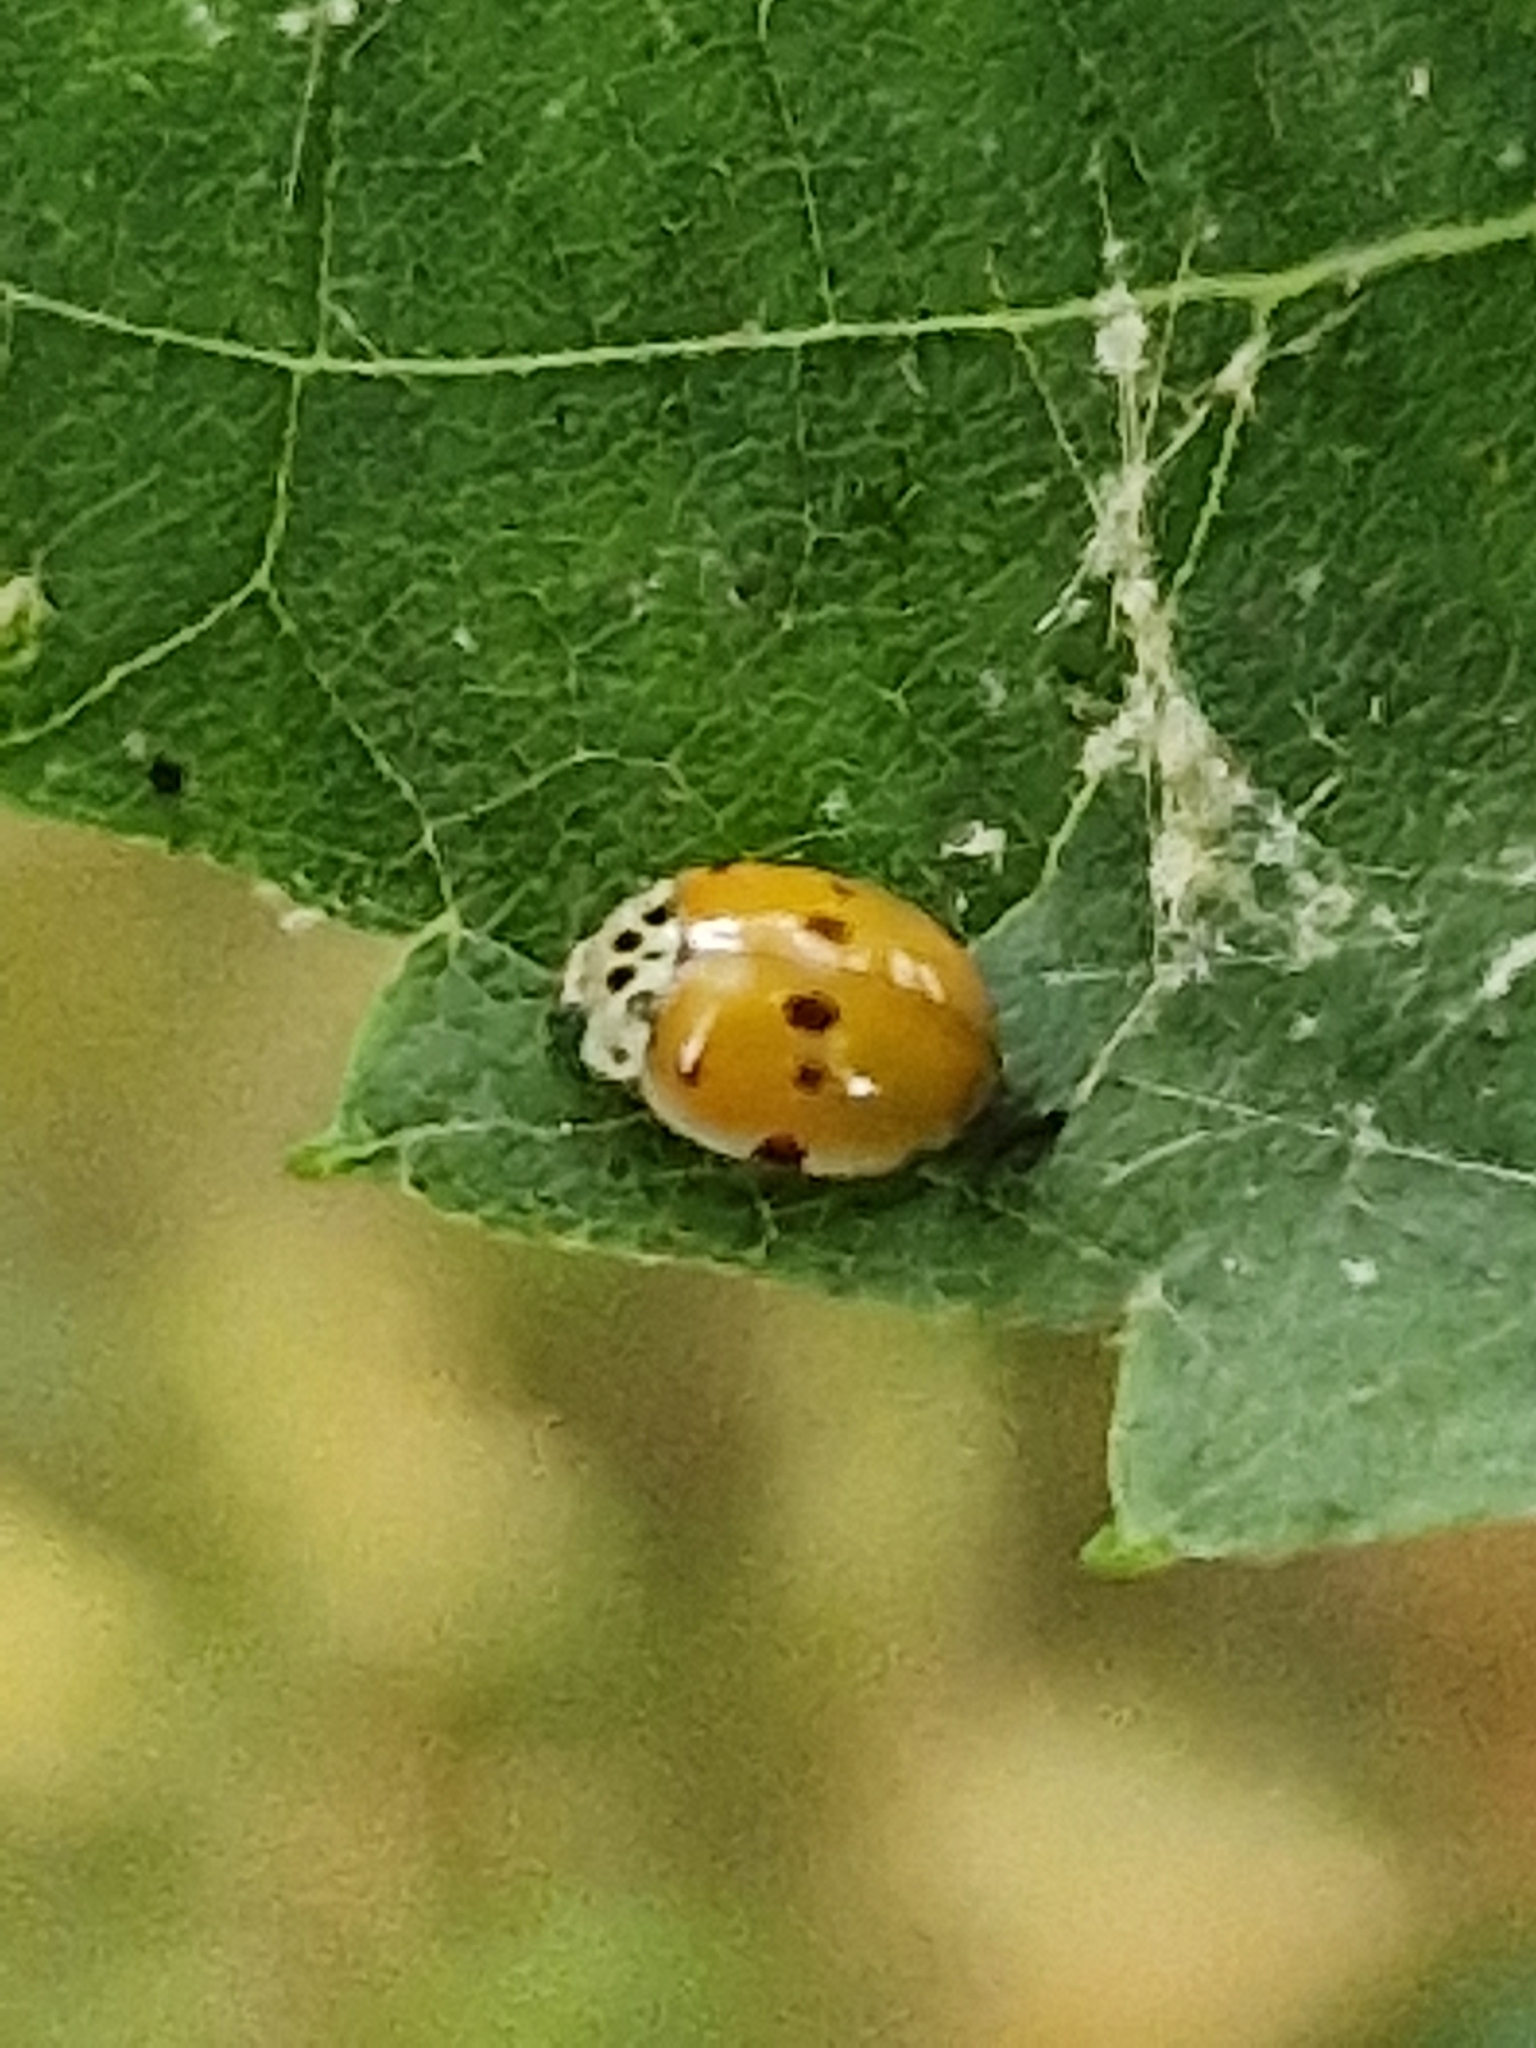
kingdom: Animalia
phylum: Arthropoda
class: Insecta
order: Coleoptera
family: Coccinellidae
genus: Adalia
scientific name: Adalia decempunctata
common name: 10-spot ladybird
